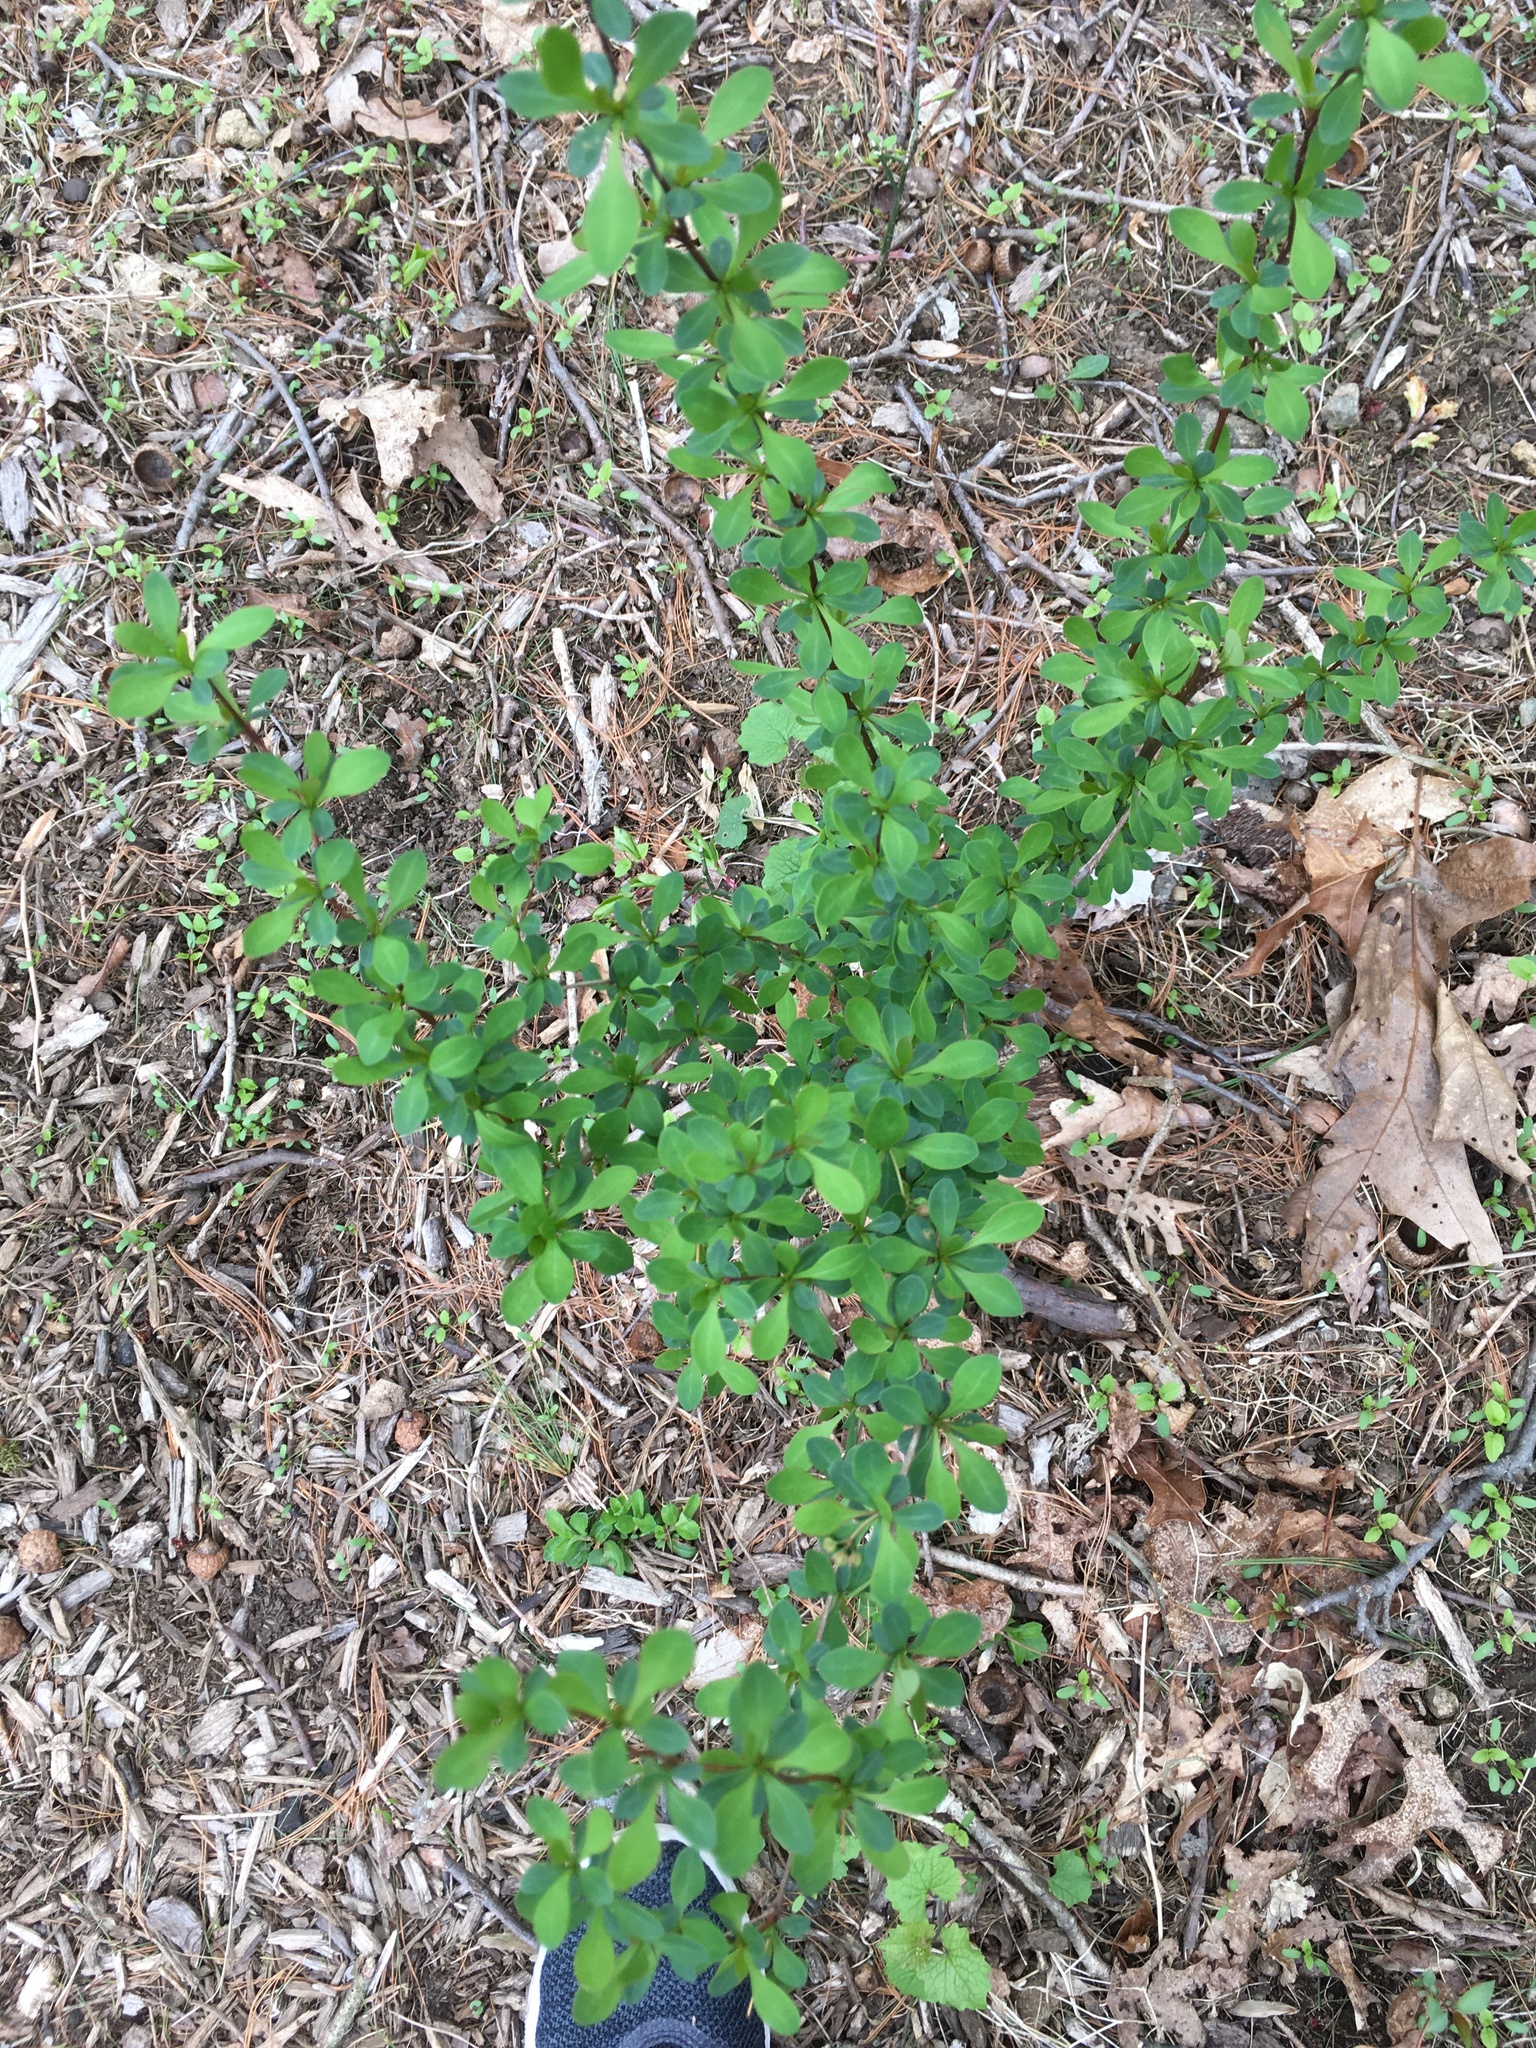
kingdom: Plantae
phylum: Tracheophyta
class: Magnoliopsida
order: Ranunculales
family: Berberidaceae
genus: Berberis
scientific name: Berberis thunbergii
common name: Japanese barberry
